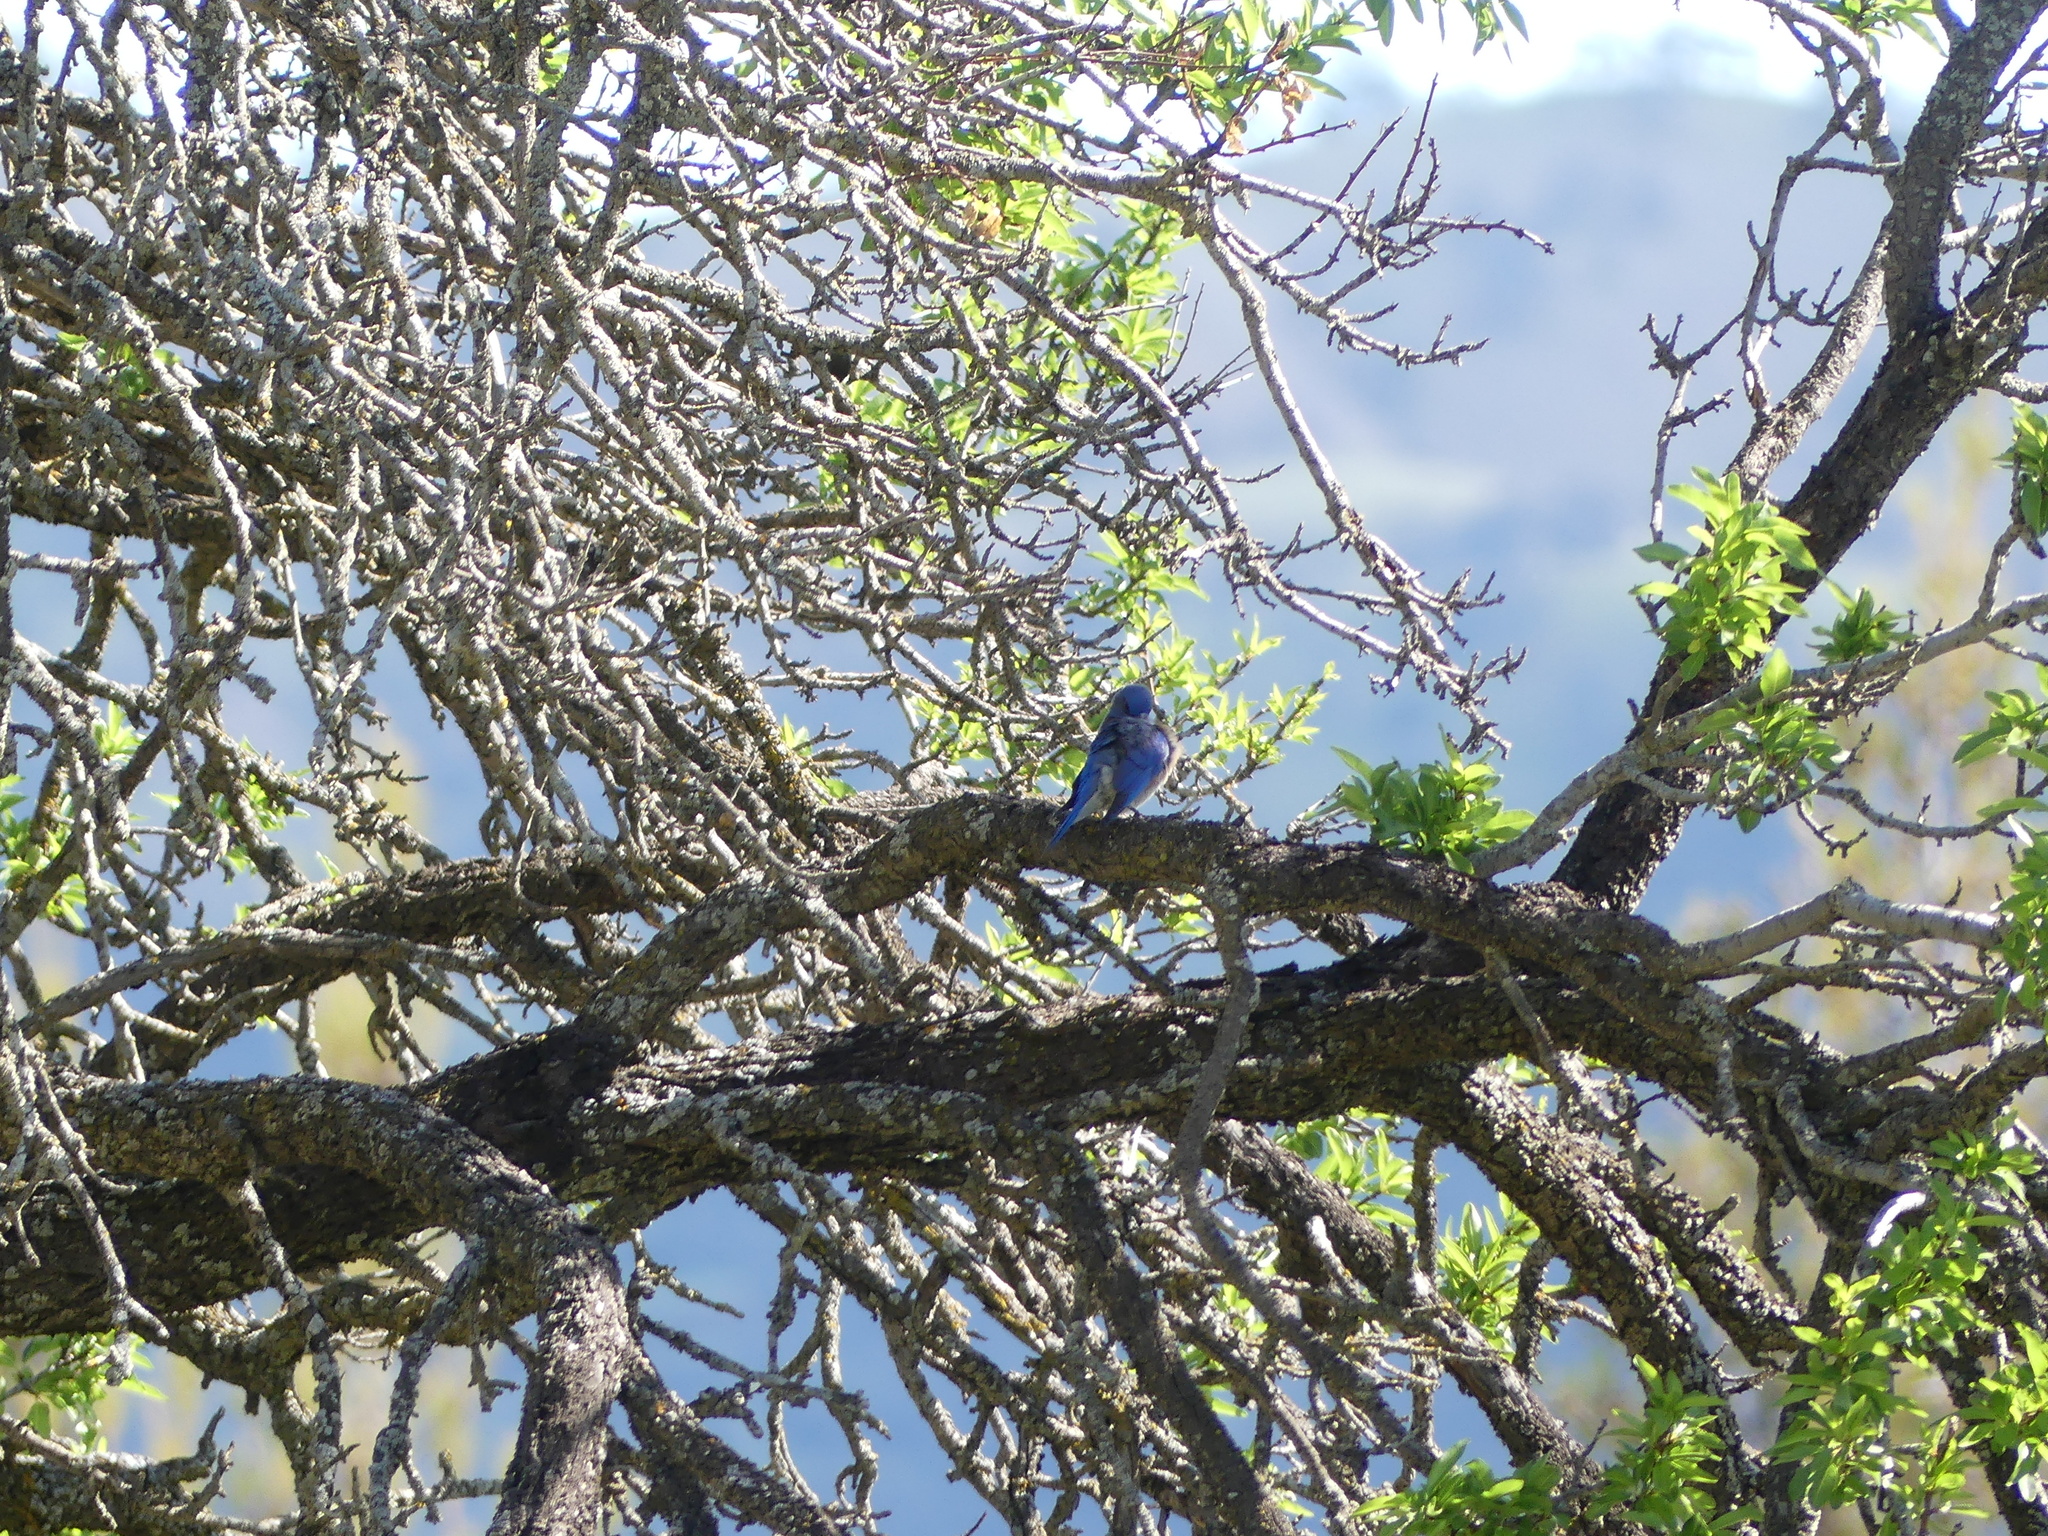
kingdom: Animalia
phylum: Chordata
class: Aves
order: Passeriformes
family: Turdidae
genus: Sialia
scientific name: Sialia mexicana
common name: Western bluebird
